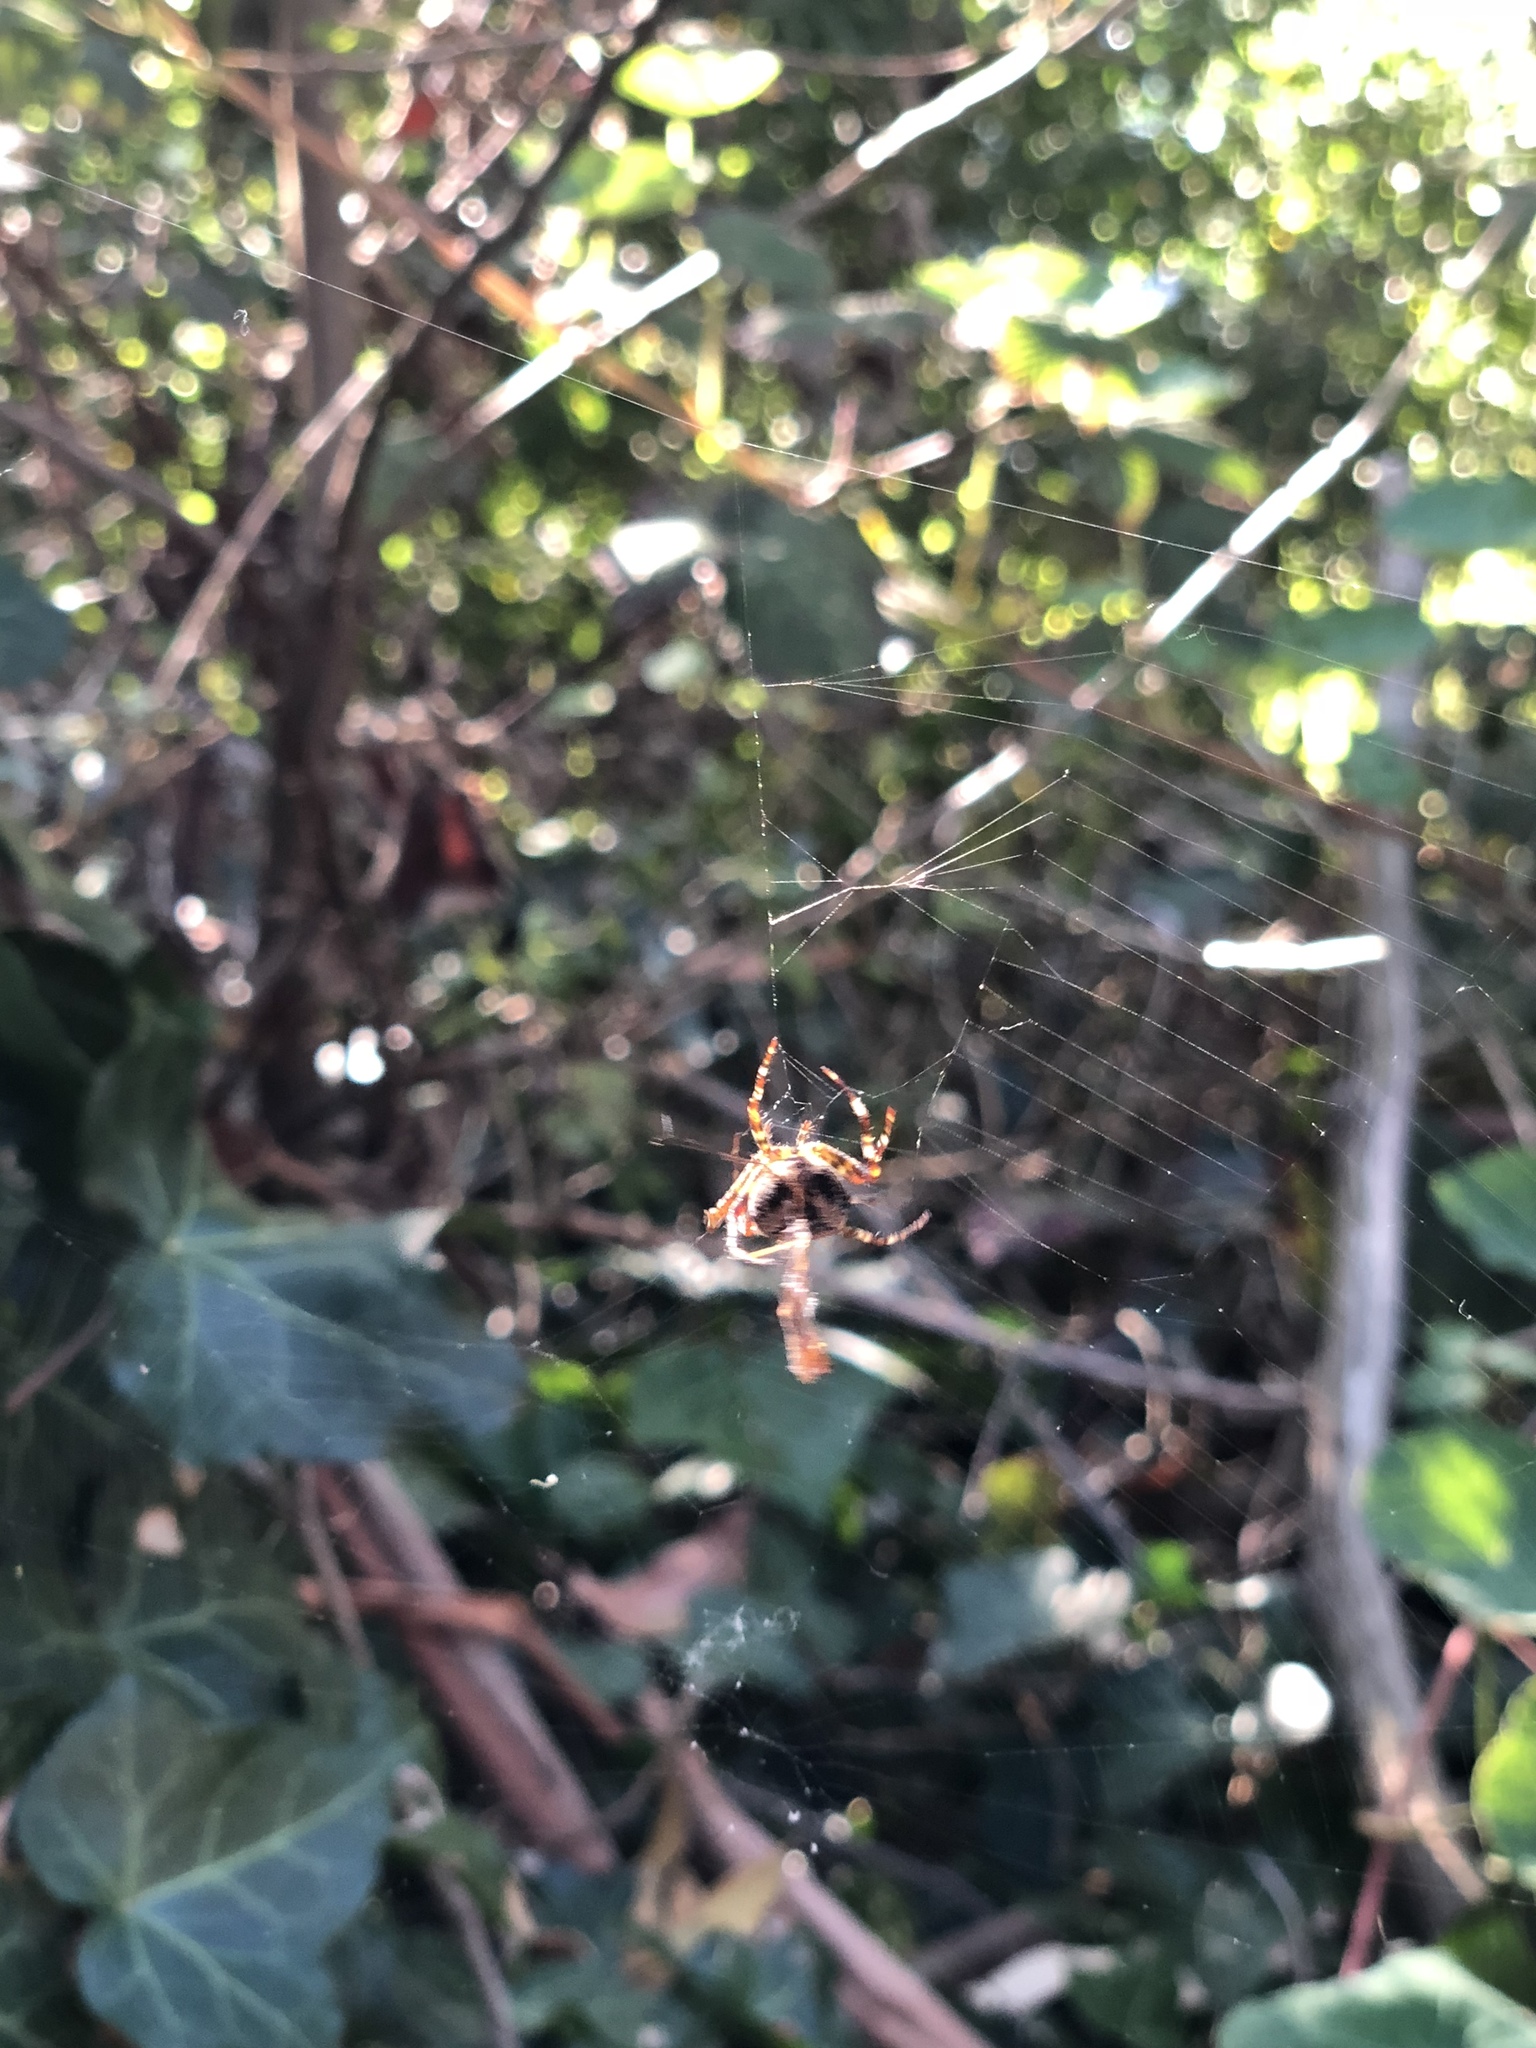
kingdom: Animalia
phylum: Arthropoda
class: Arachnida
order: Araneae
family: Araneidae
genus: Araneus
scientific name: Araneus diadematus
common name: Cross orbweaver
